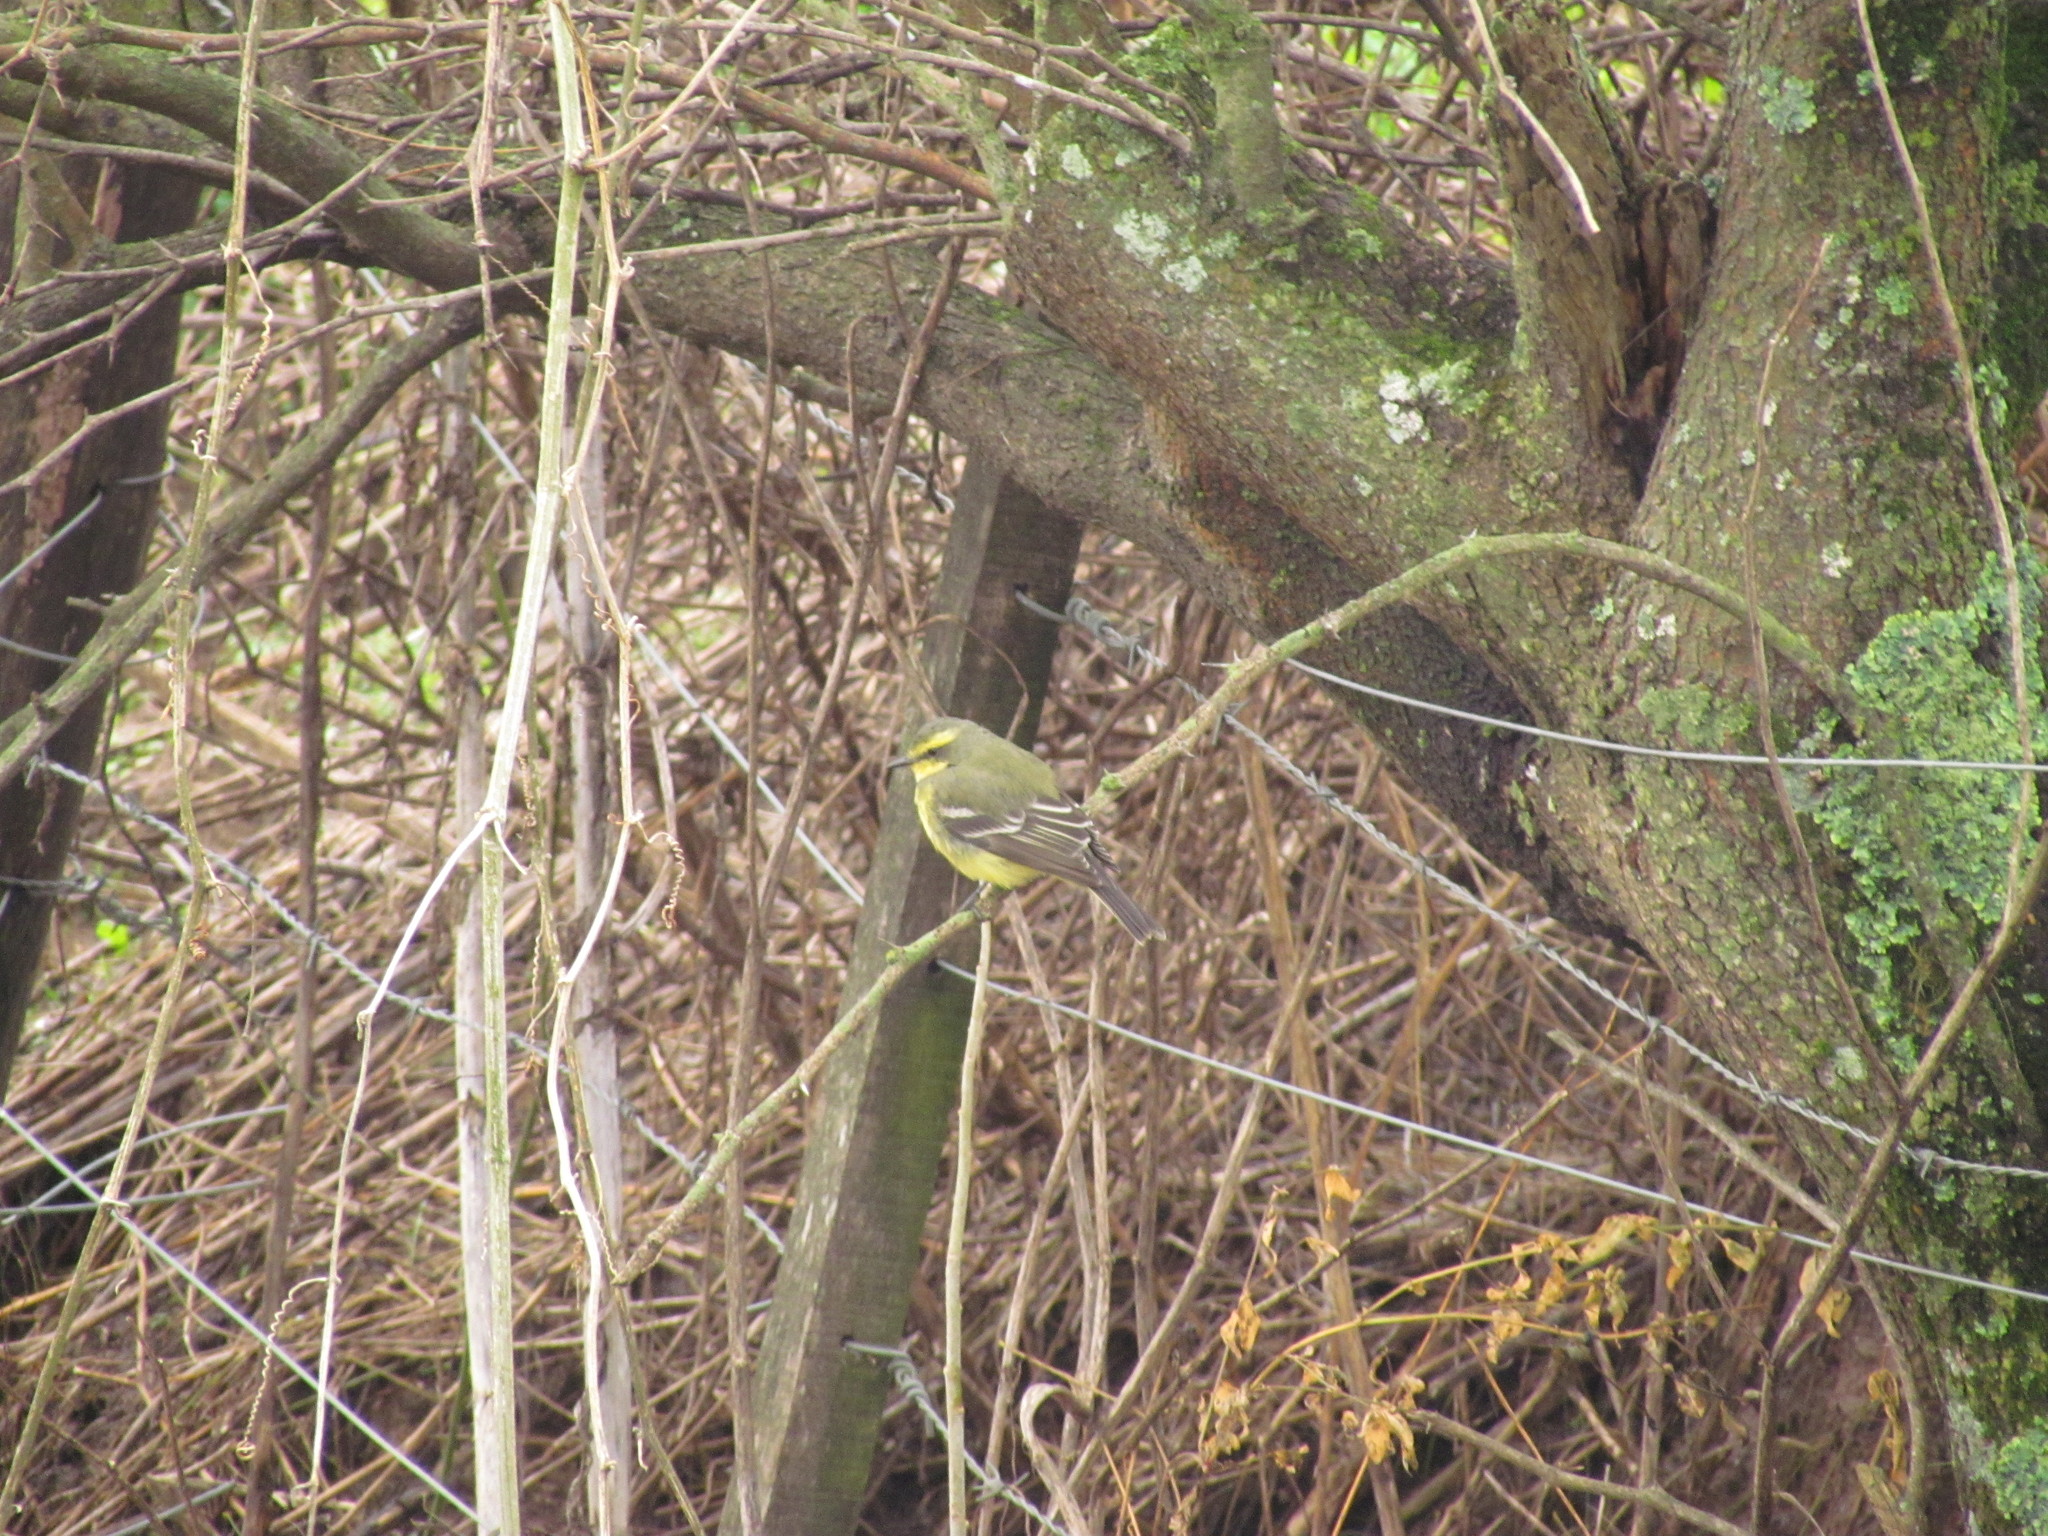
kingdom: Animalia
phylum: Chordata
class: Aves
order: Passeriformes
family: Tyrannidae
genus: Satrapa
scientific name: Satrapa icterophrys
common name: Yellow-browed tyrant
